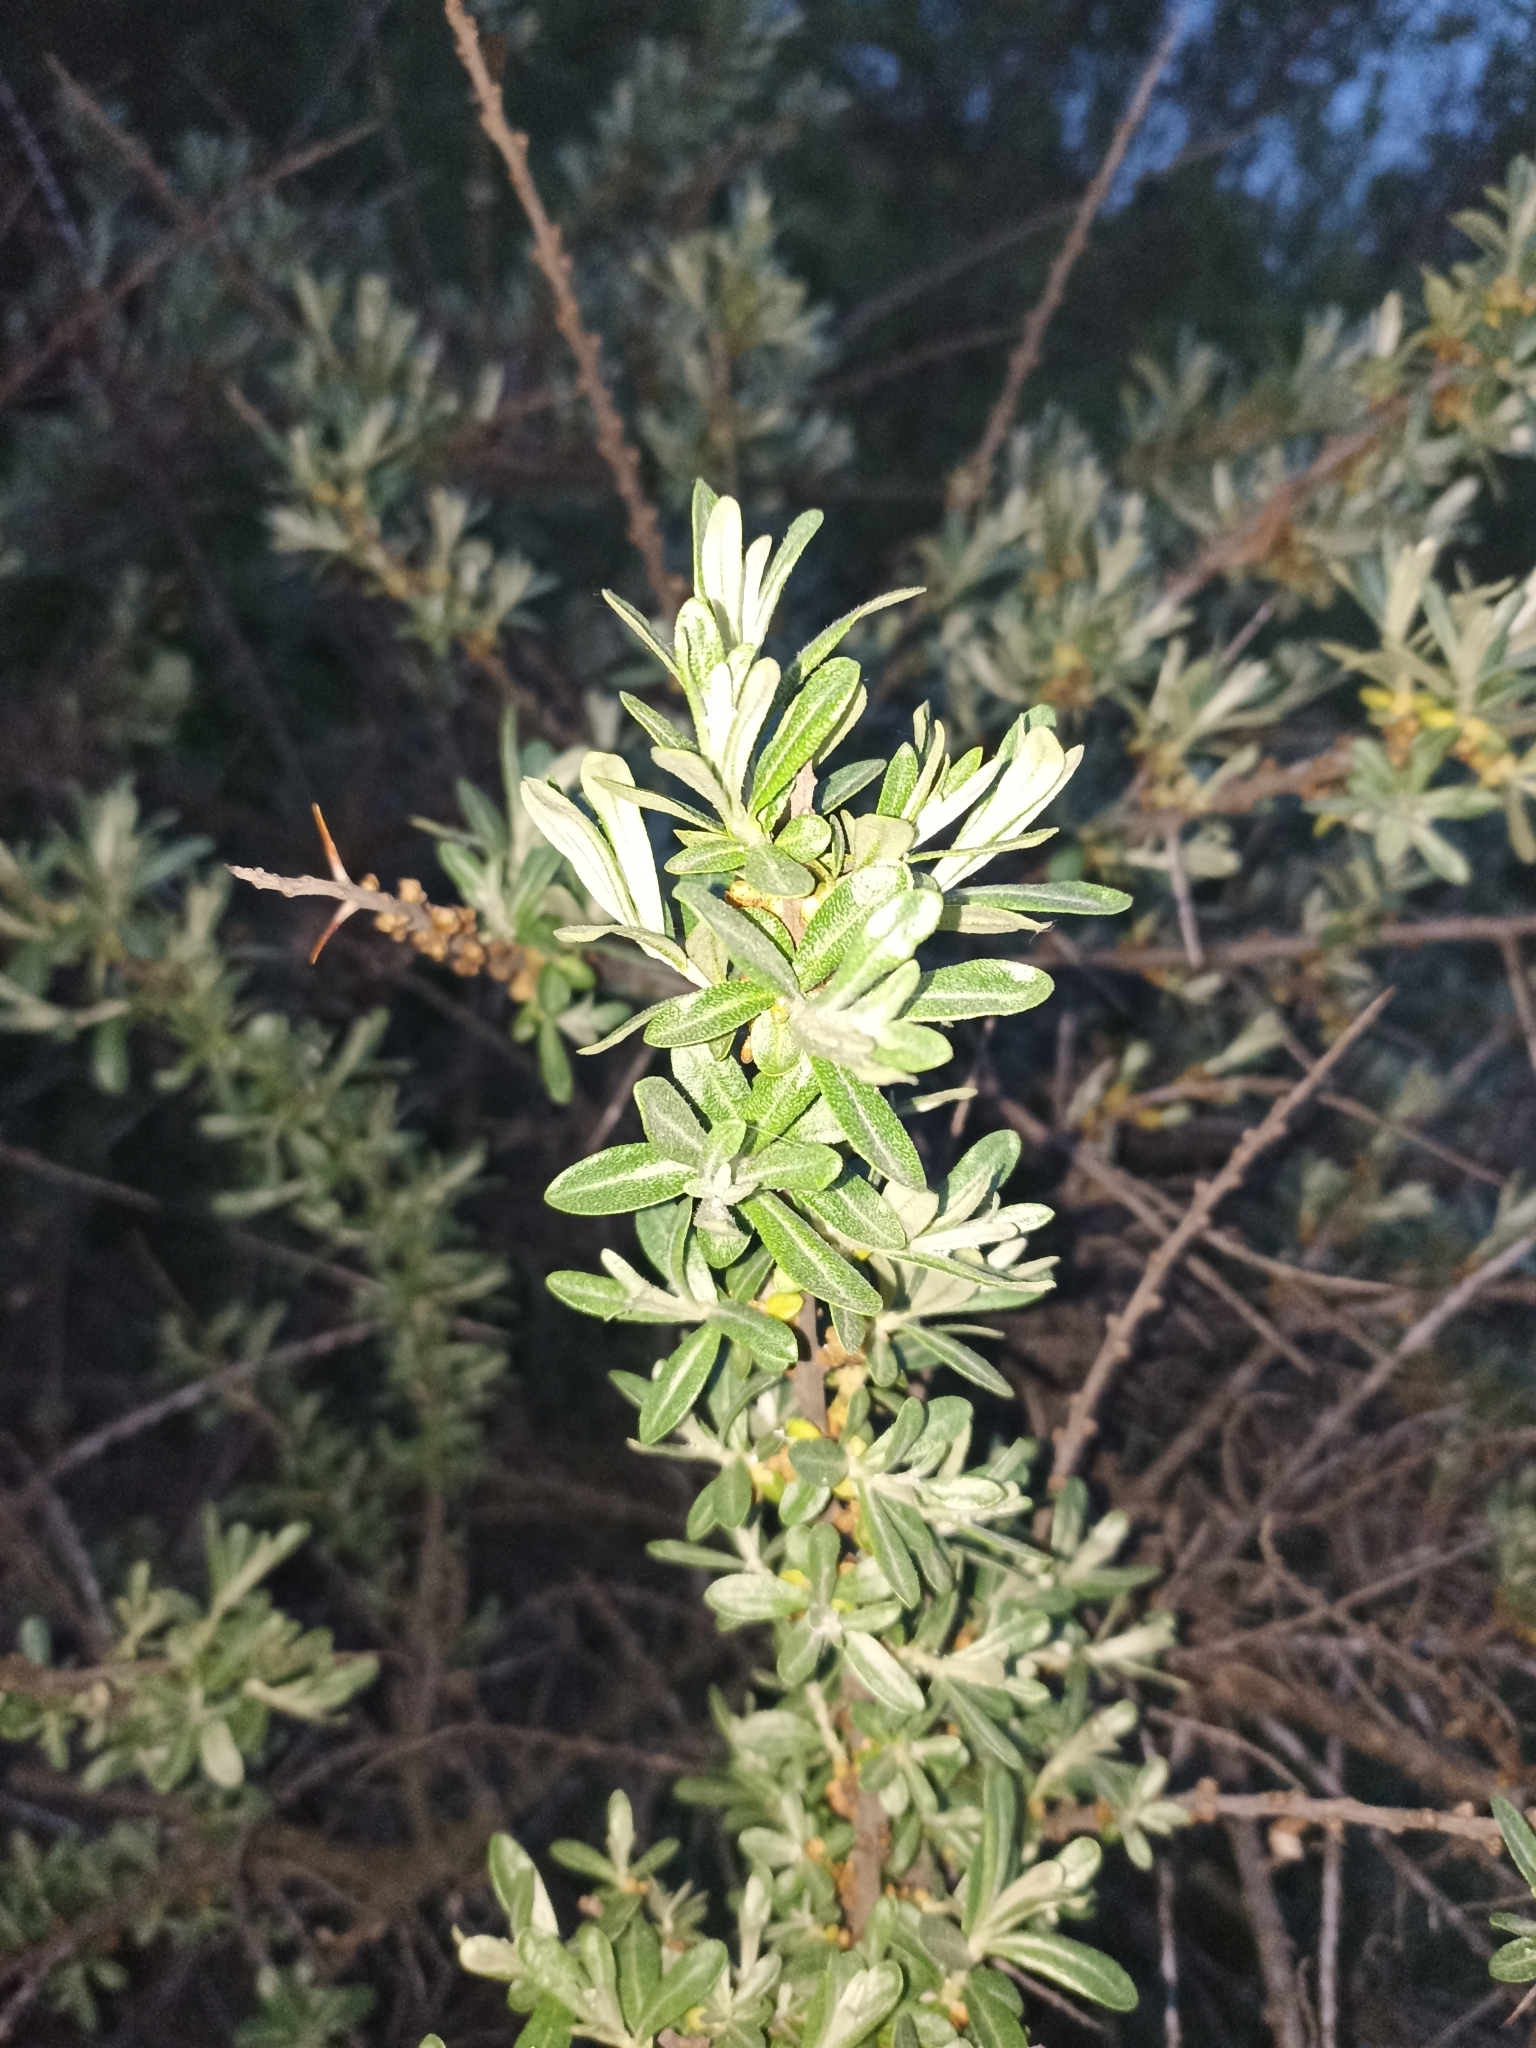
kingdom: Plantae
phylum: Tracheophyta
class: Magnoliopsida
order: Rosales
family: Elaeagnaceae
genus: Hippophae
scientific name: Hippophae rhamnoides
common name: Sea-buckthorn
